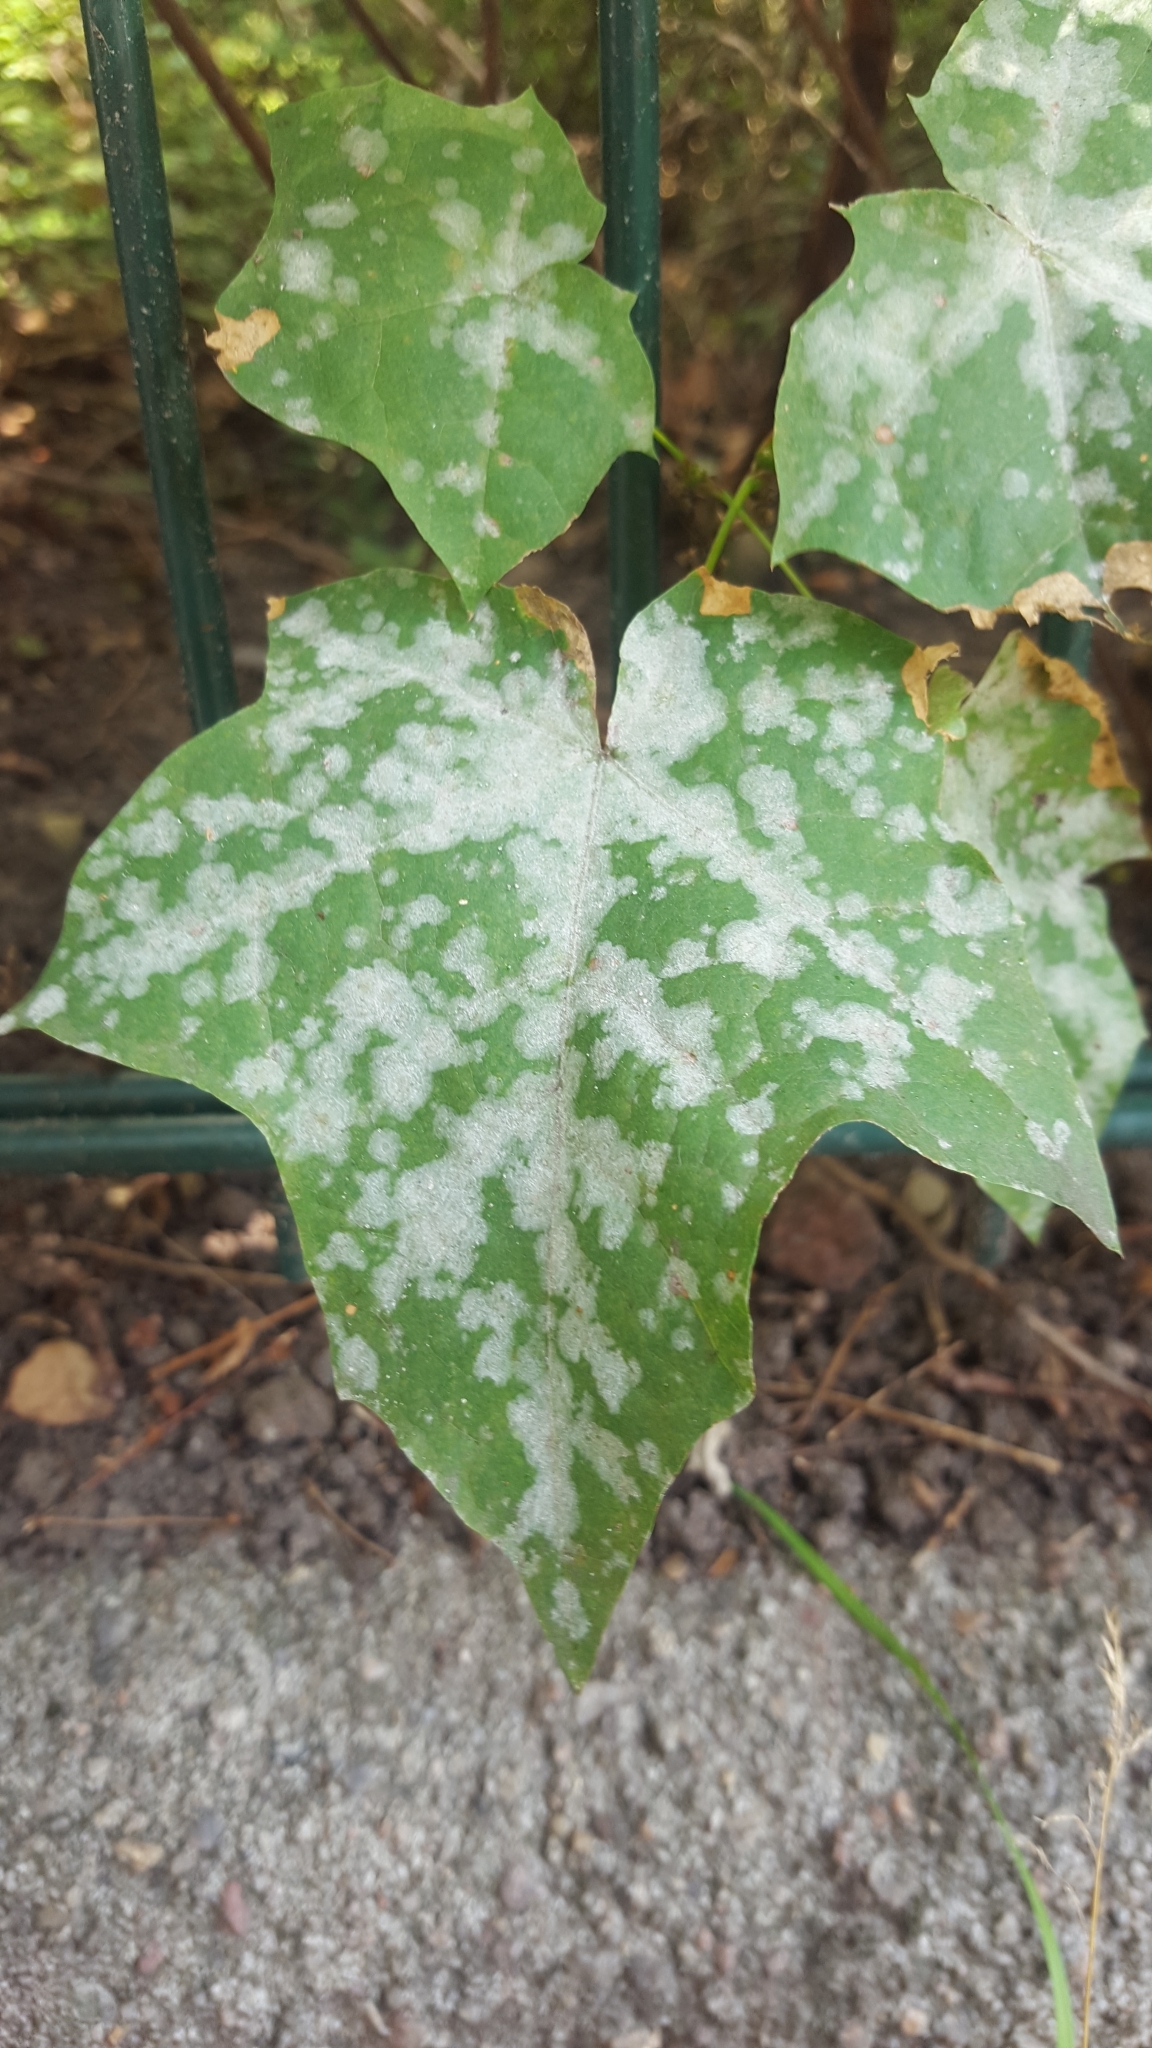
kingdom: Fungi
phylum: Ascomycota
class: Leotiomycetes
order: Helotiales
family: Erysiphaceae
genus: Sawadaea
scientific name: Sawadaea tulasnei
